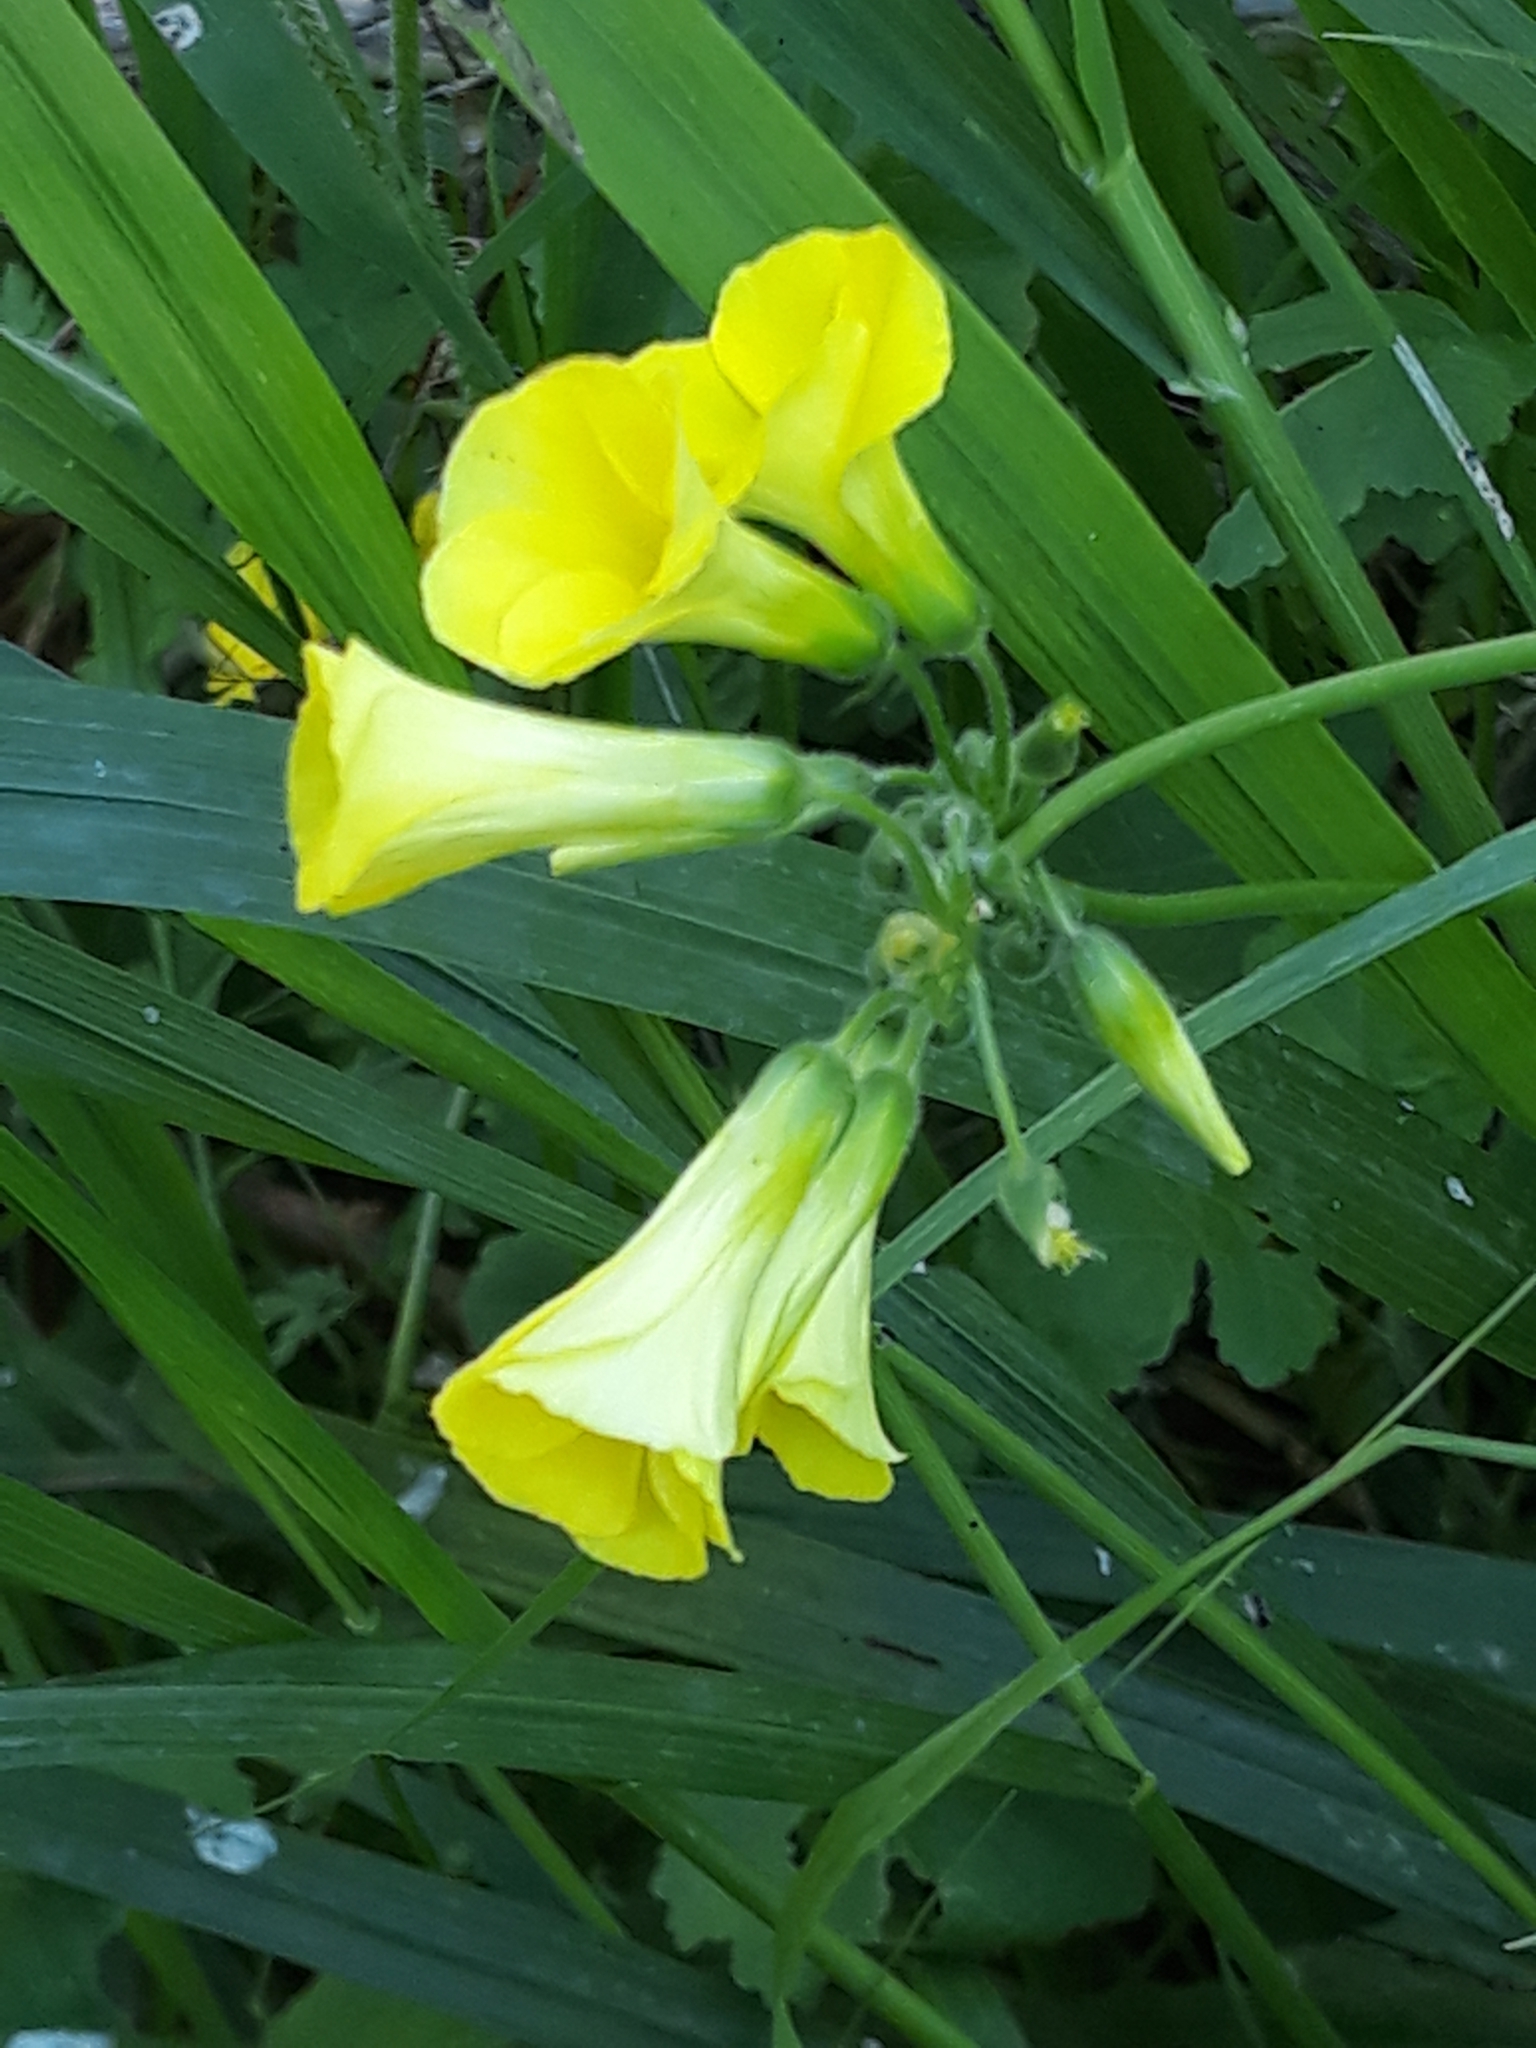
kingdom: Plantae
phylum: Tracheophyta
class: Magnoliopsida
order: Oxalidales
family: Oxalidaceae
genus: Oxalis
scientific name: Oxalis pes-caprae
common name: Bermuda-buttercup
